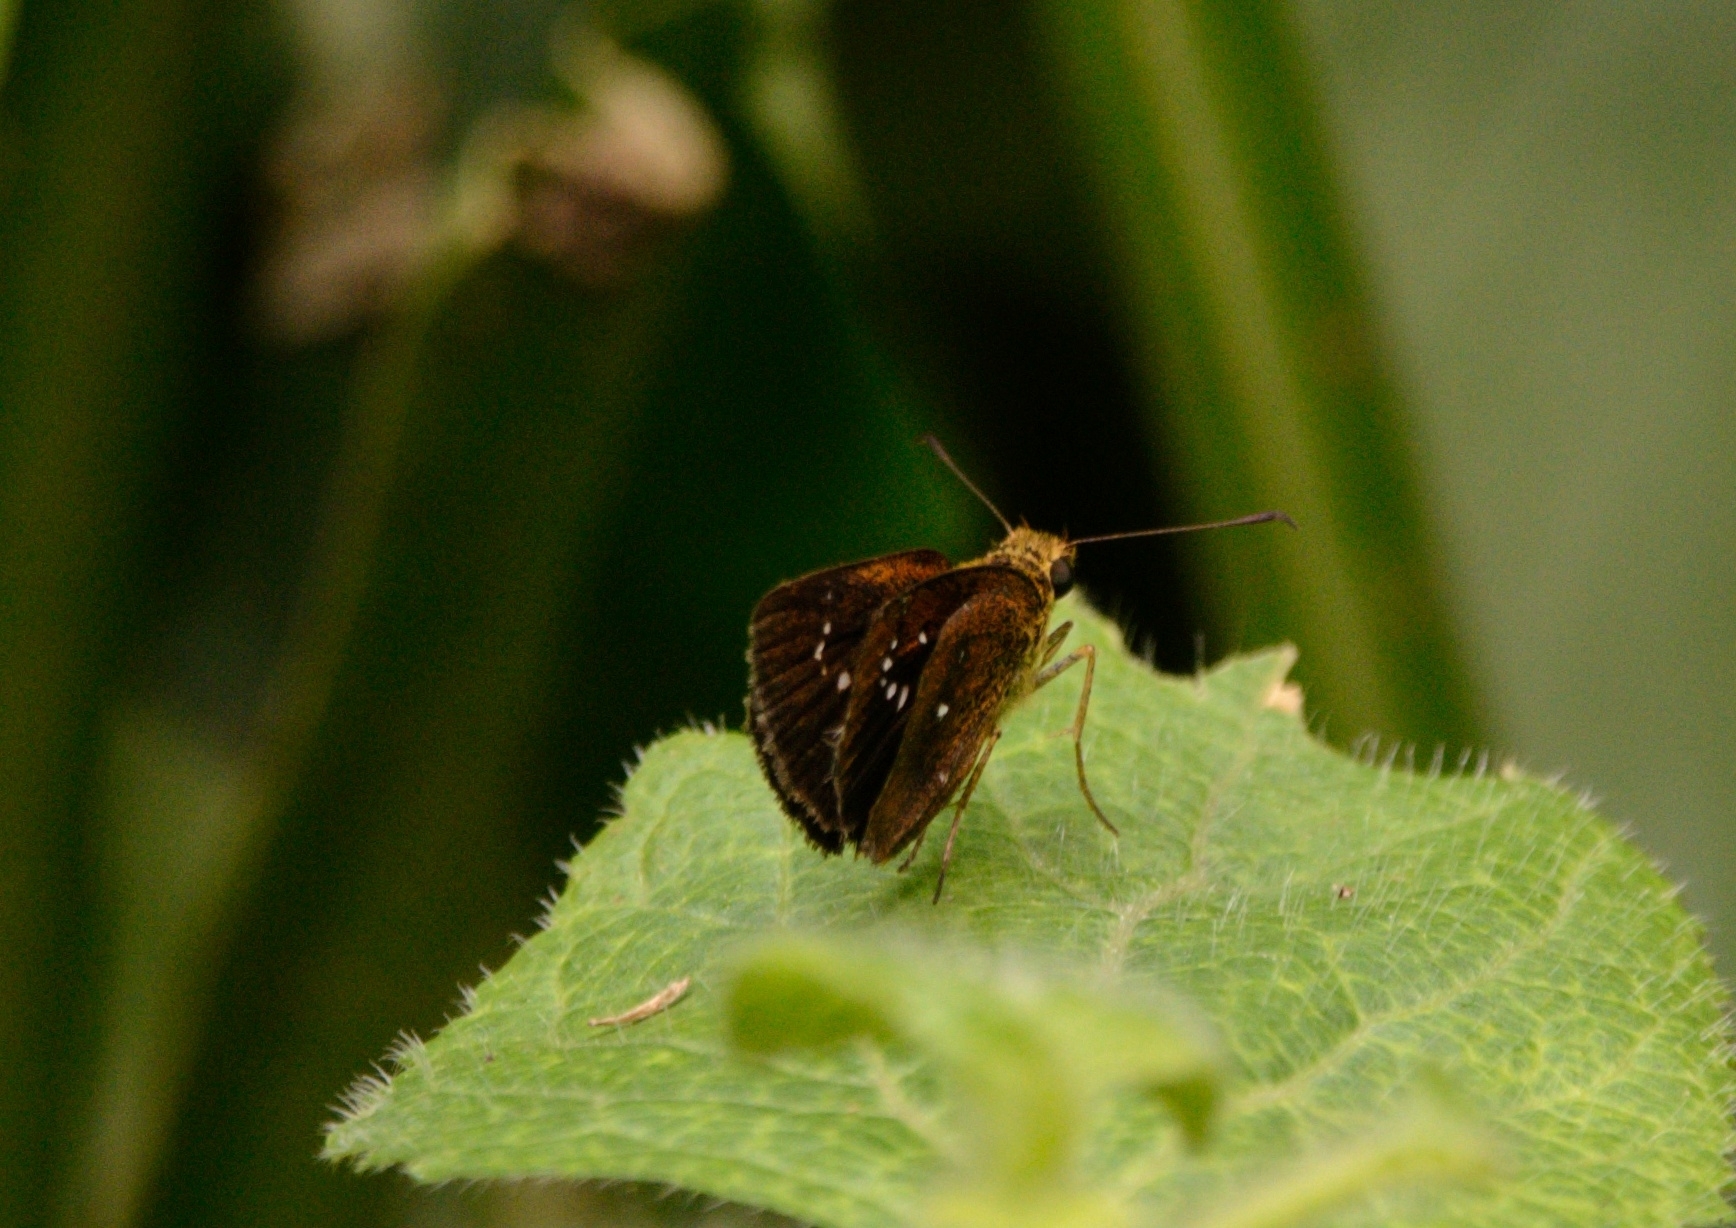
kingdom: Animalia
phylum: Arthropoda
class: Insecta
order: Lepidoptera
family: Hesperiidae
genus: Suastus
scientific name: Suastus gremius
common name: Indian palm bob
